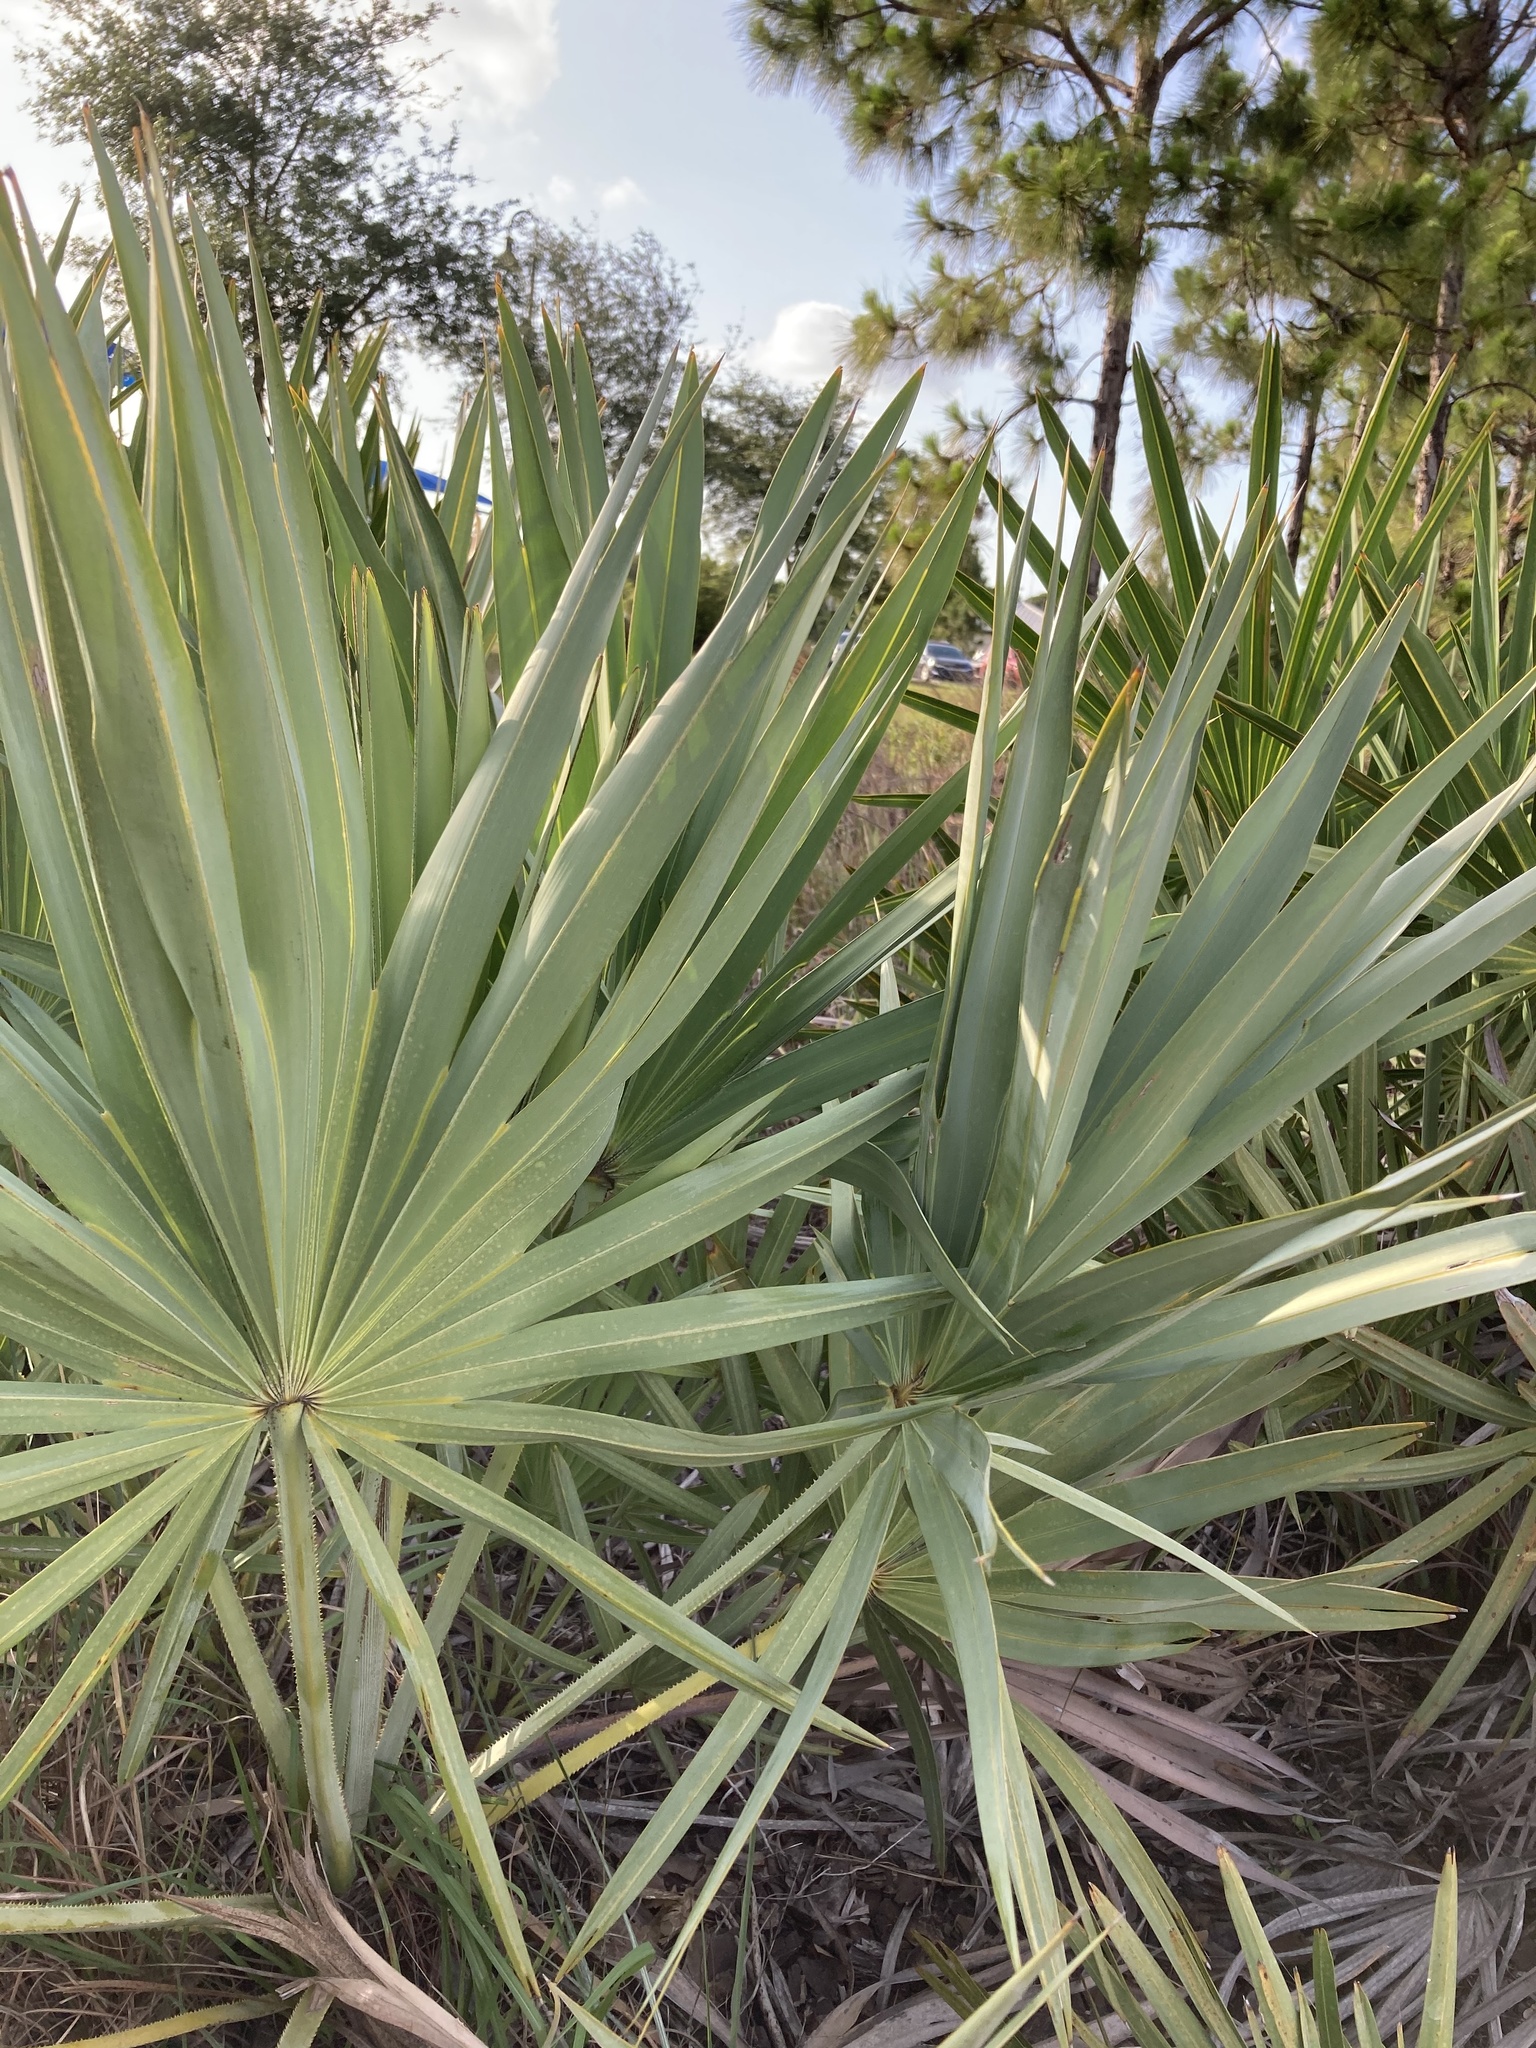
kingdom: Plantae
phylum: Tracheophyta
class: Liliopsida
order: Arecales
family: Arecaceae
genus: Serenoa
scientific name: Serenoa repens
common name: Saw-palmetto
